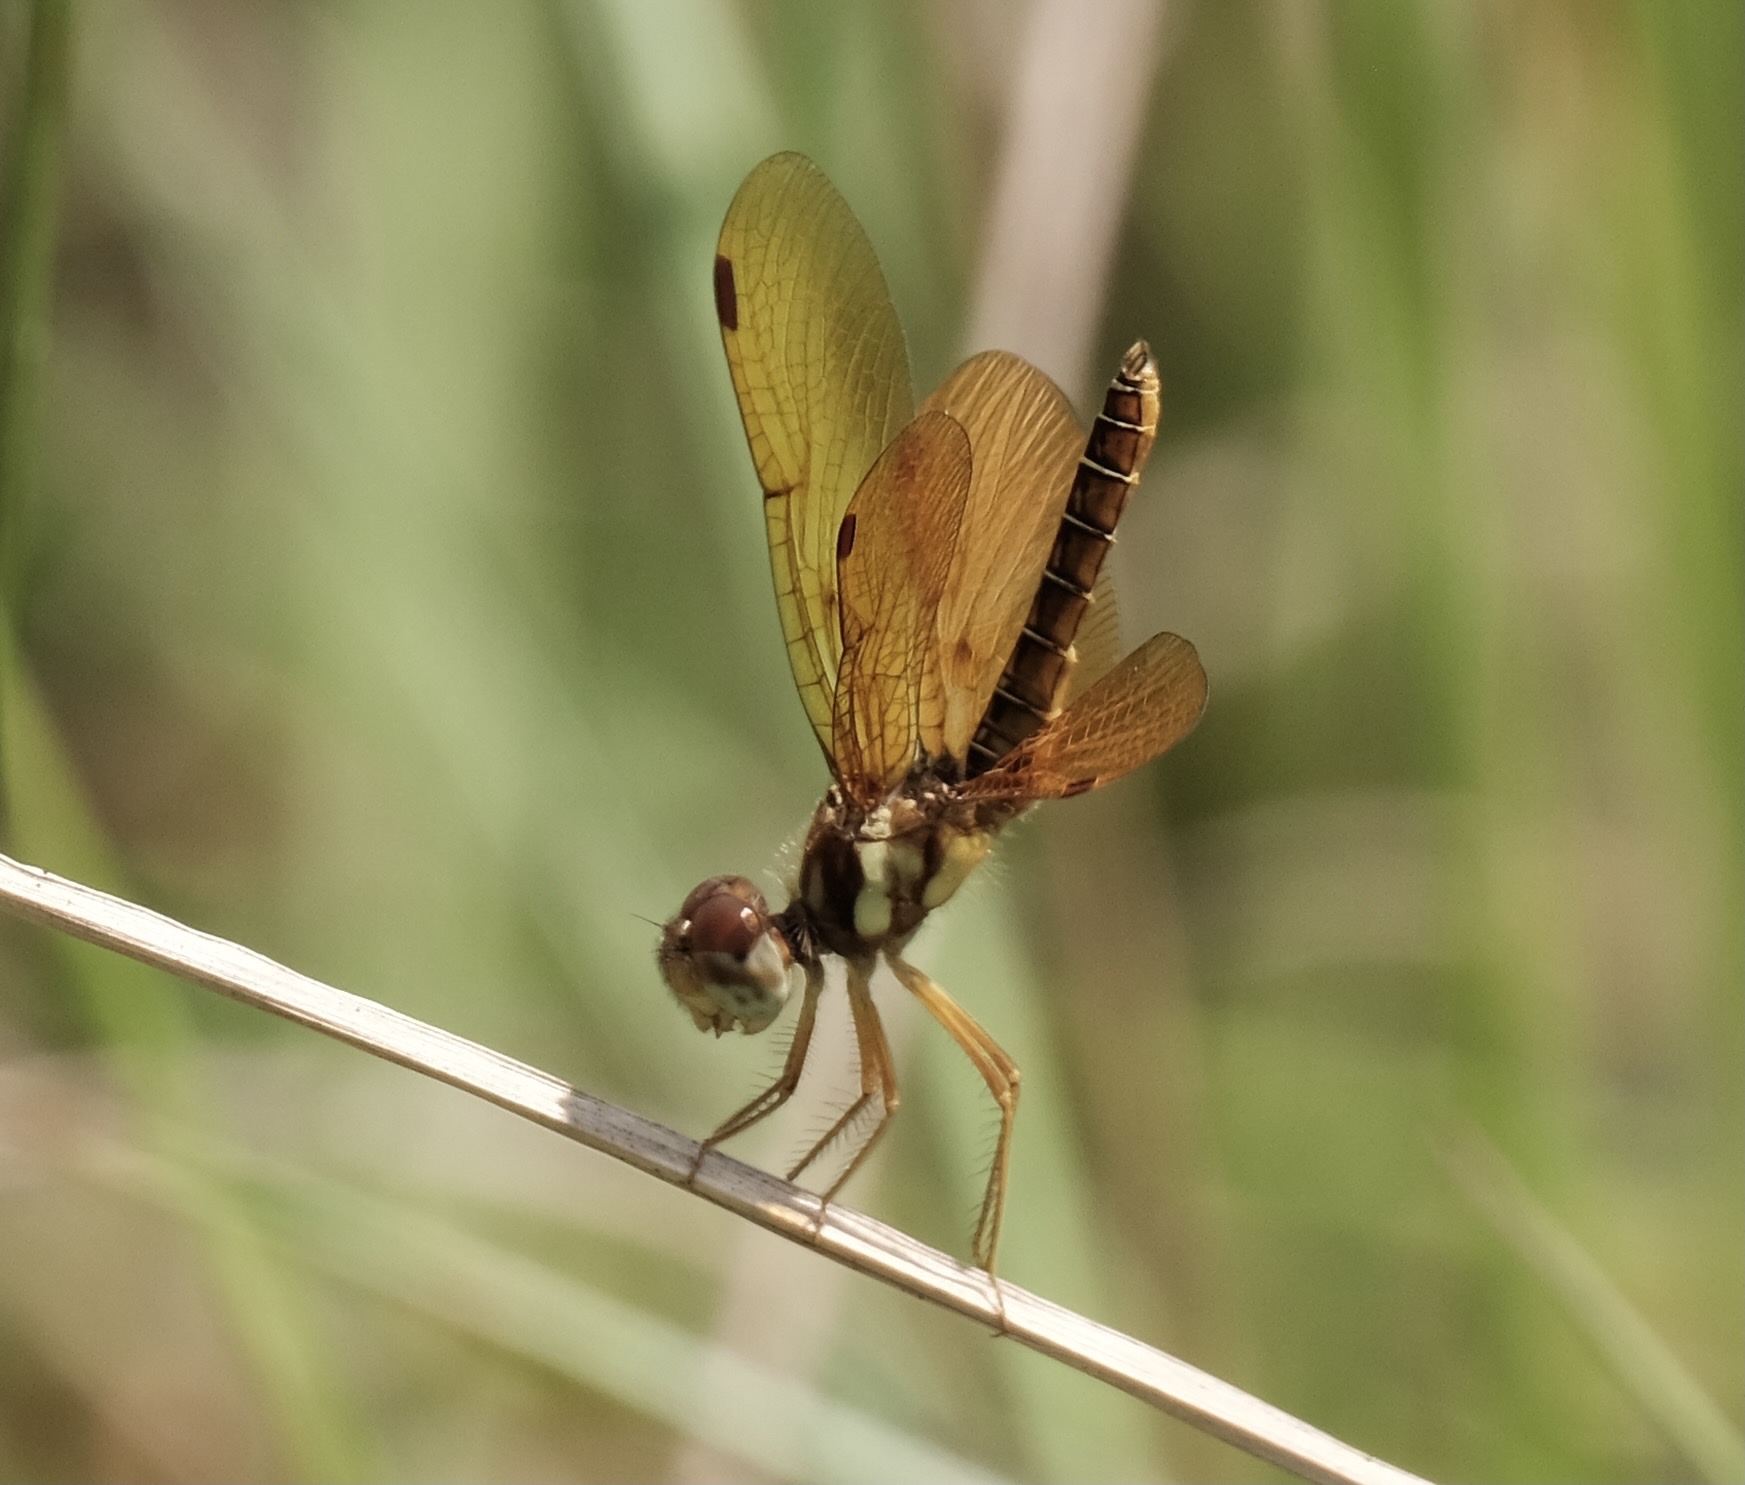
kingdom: Animalia
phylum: Arthropoda
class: Insecta
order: Odonata
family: Libellulidae
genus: Perithemis
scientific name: Perithemis tenera
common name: Eastern amberwing
